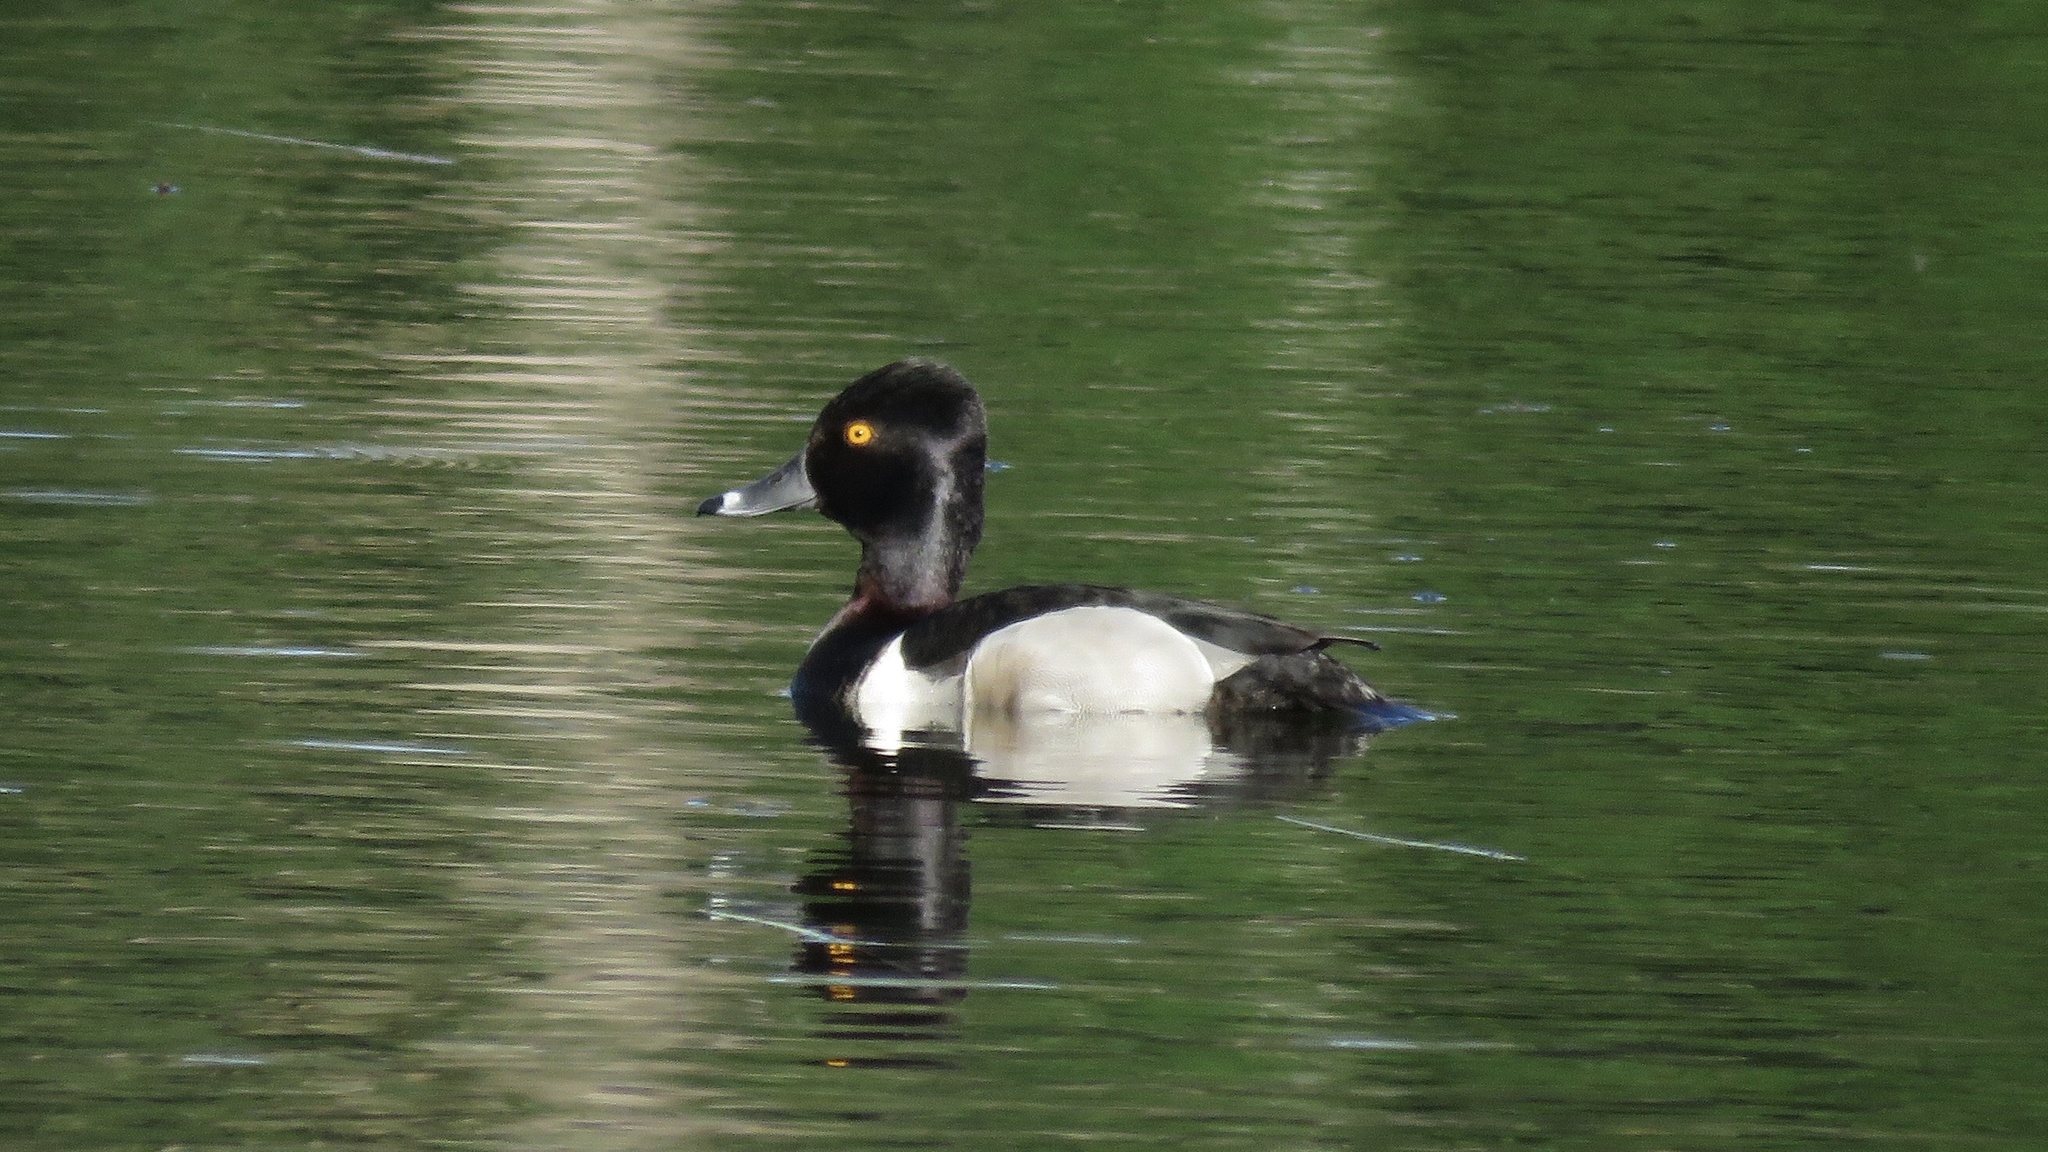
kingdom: Animalia
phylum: Chordata
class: Aves
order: Anseriformes
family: Anatidae
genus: Aythya
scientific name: Aythya collaris
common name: Ring-necked duck
